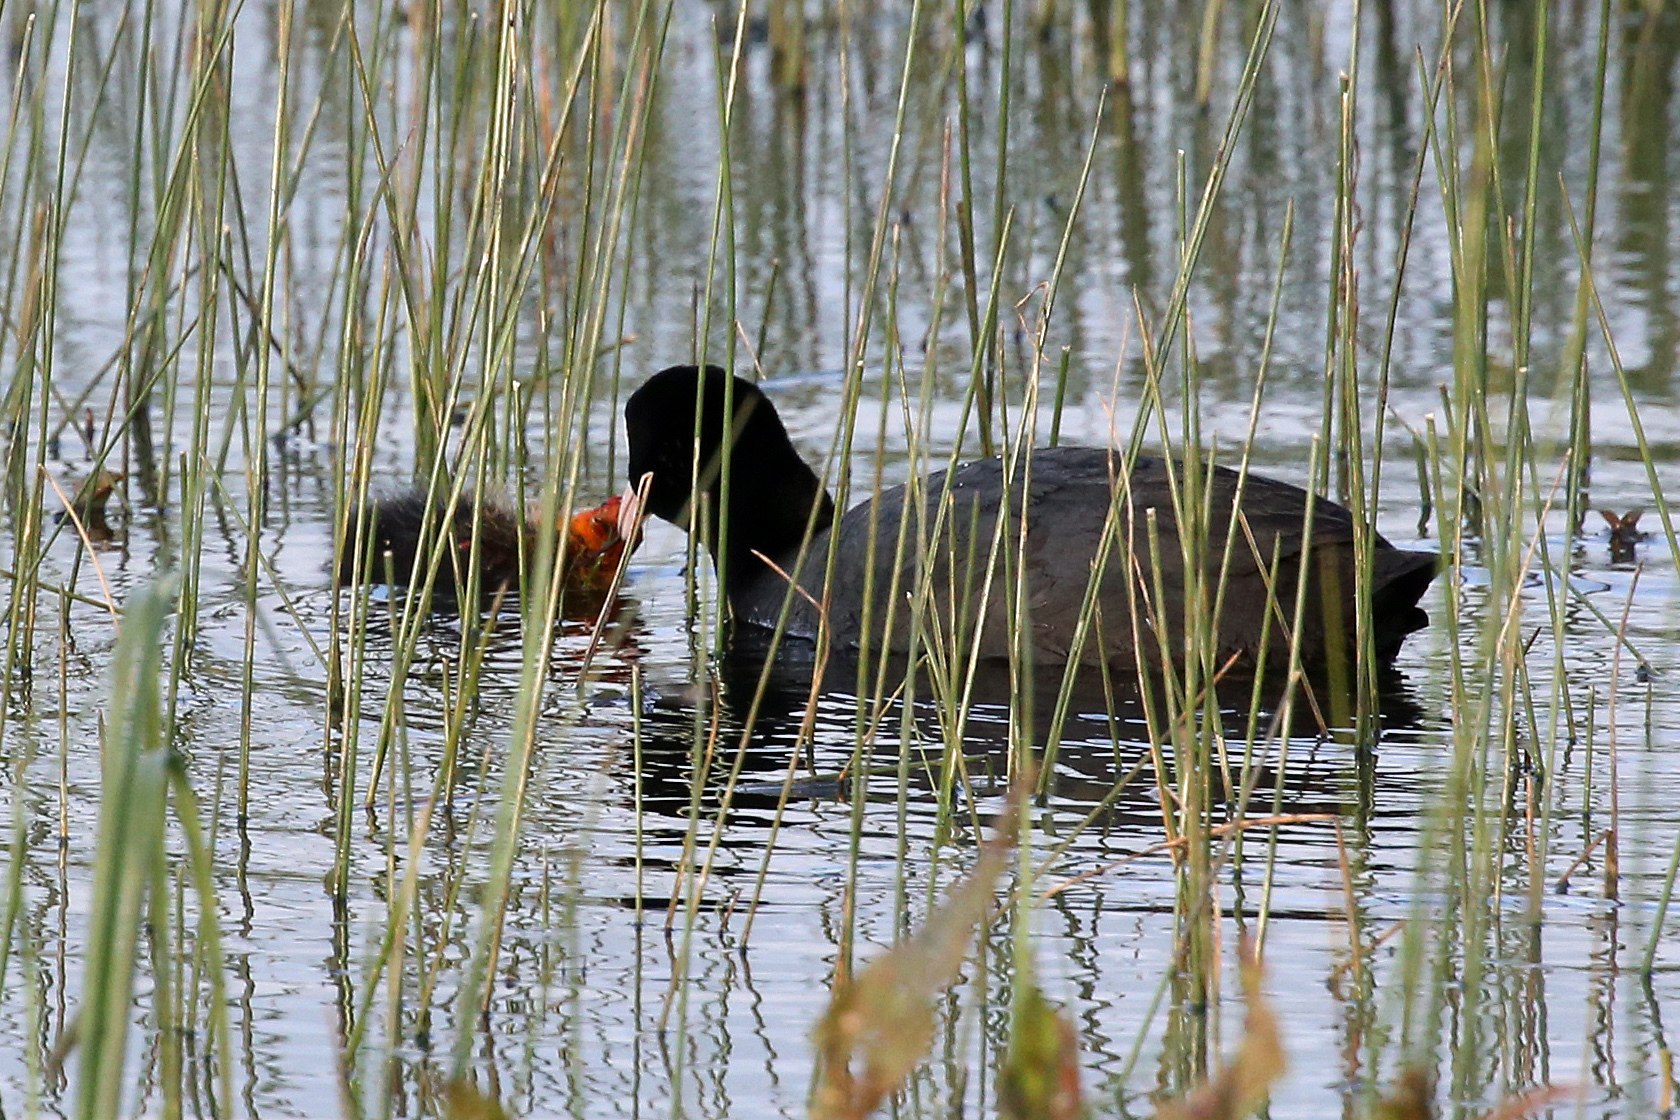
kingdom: Animalia
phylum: Chordata
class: Aves
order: Gruiformes
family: Rallidae
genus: Fulica
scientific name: Fulica atra
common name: Eurasian coot
